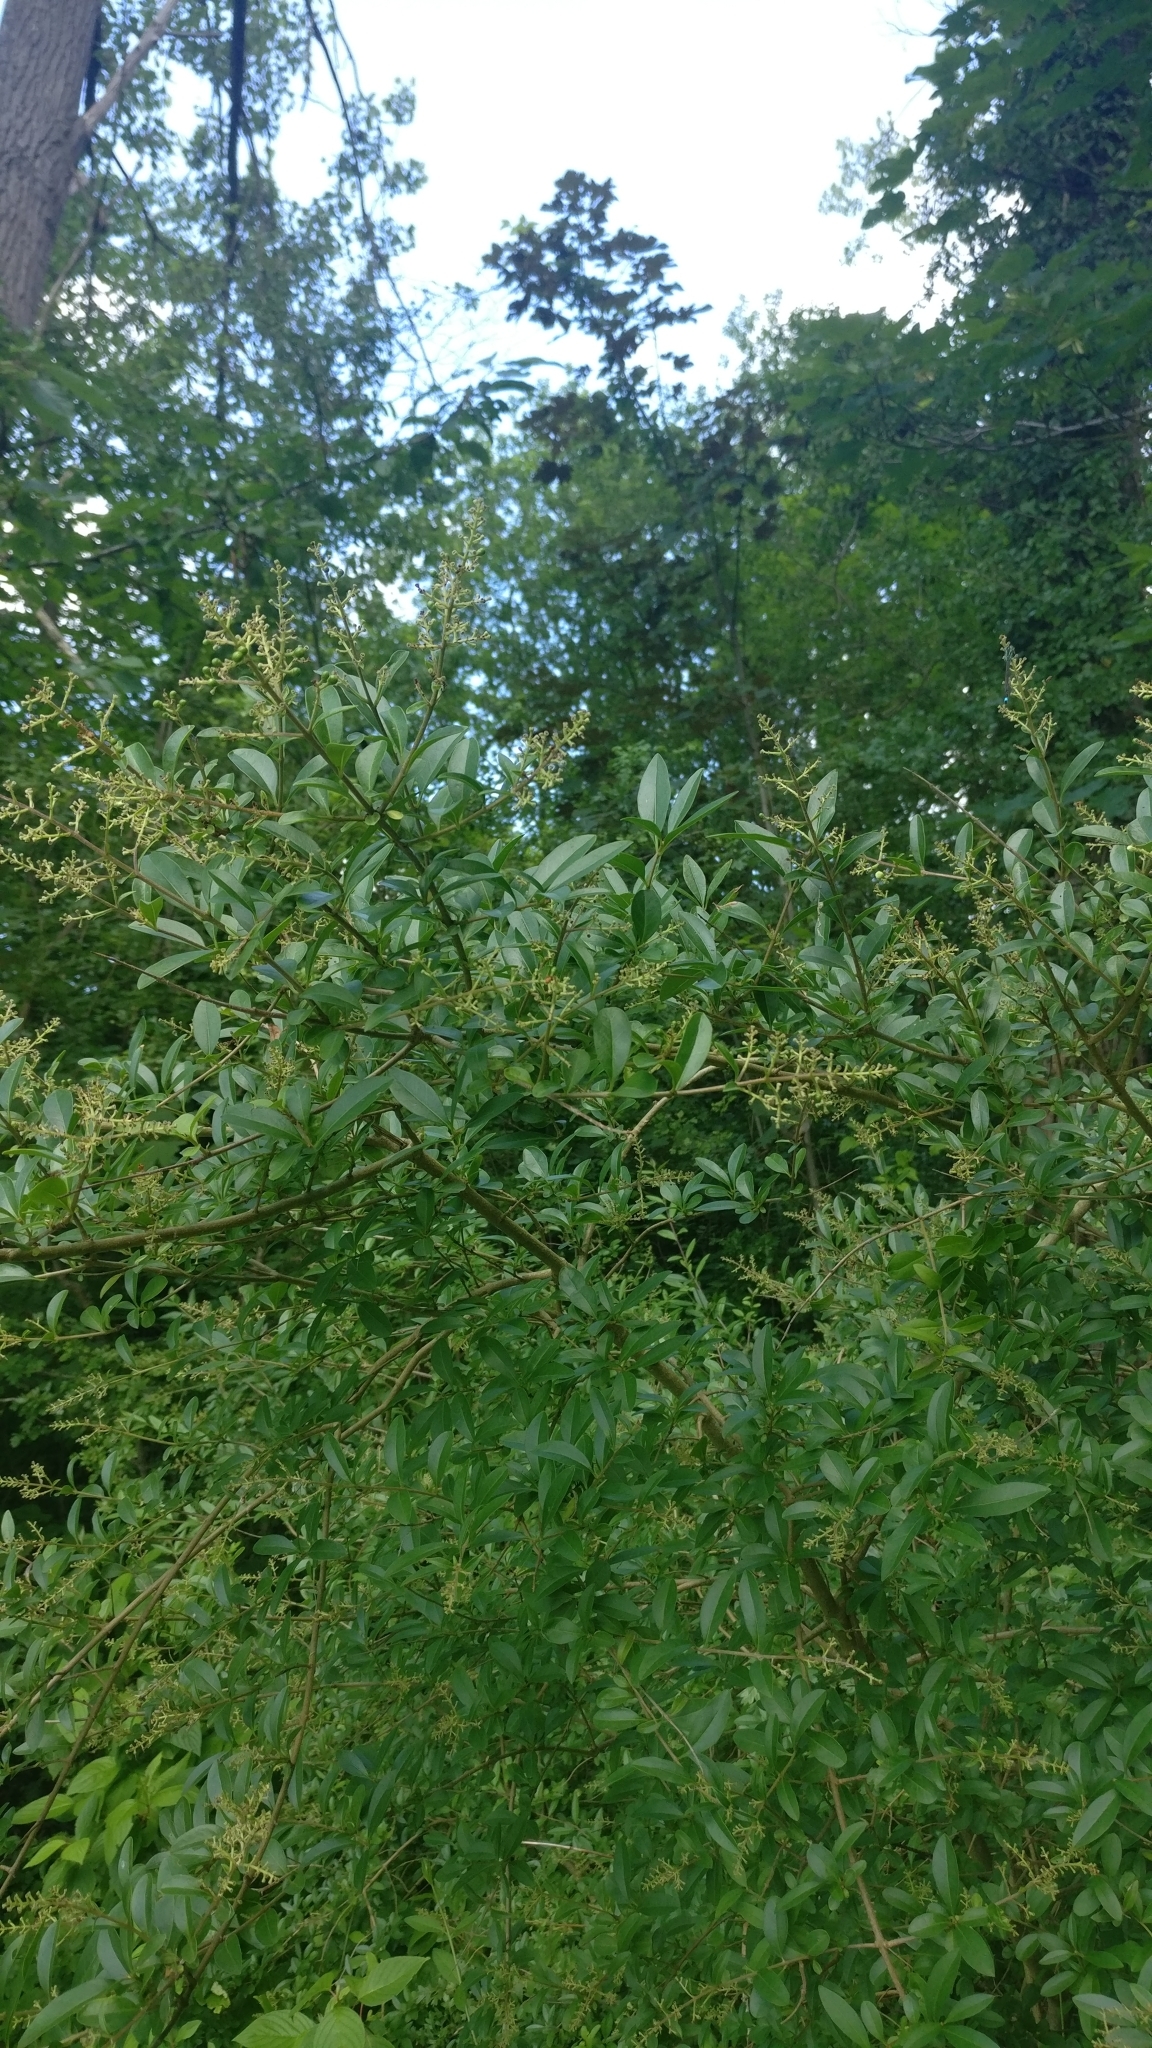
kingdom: Plantae
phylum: Tracheophyta
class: Magnoliopsida
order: Lamiales
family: Oleaceae
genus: Ligustrum
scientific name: Ligustrum vulgare
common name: Wild privet
